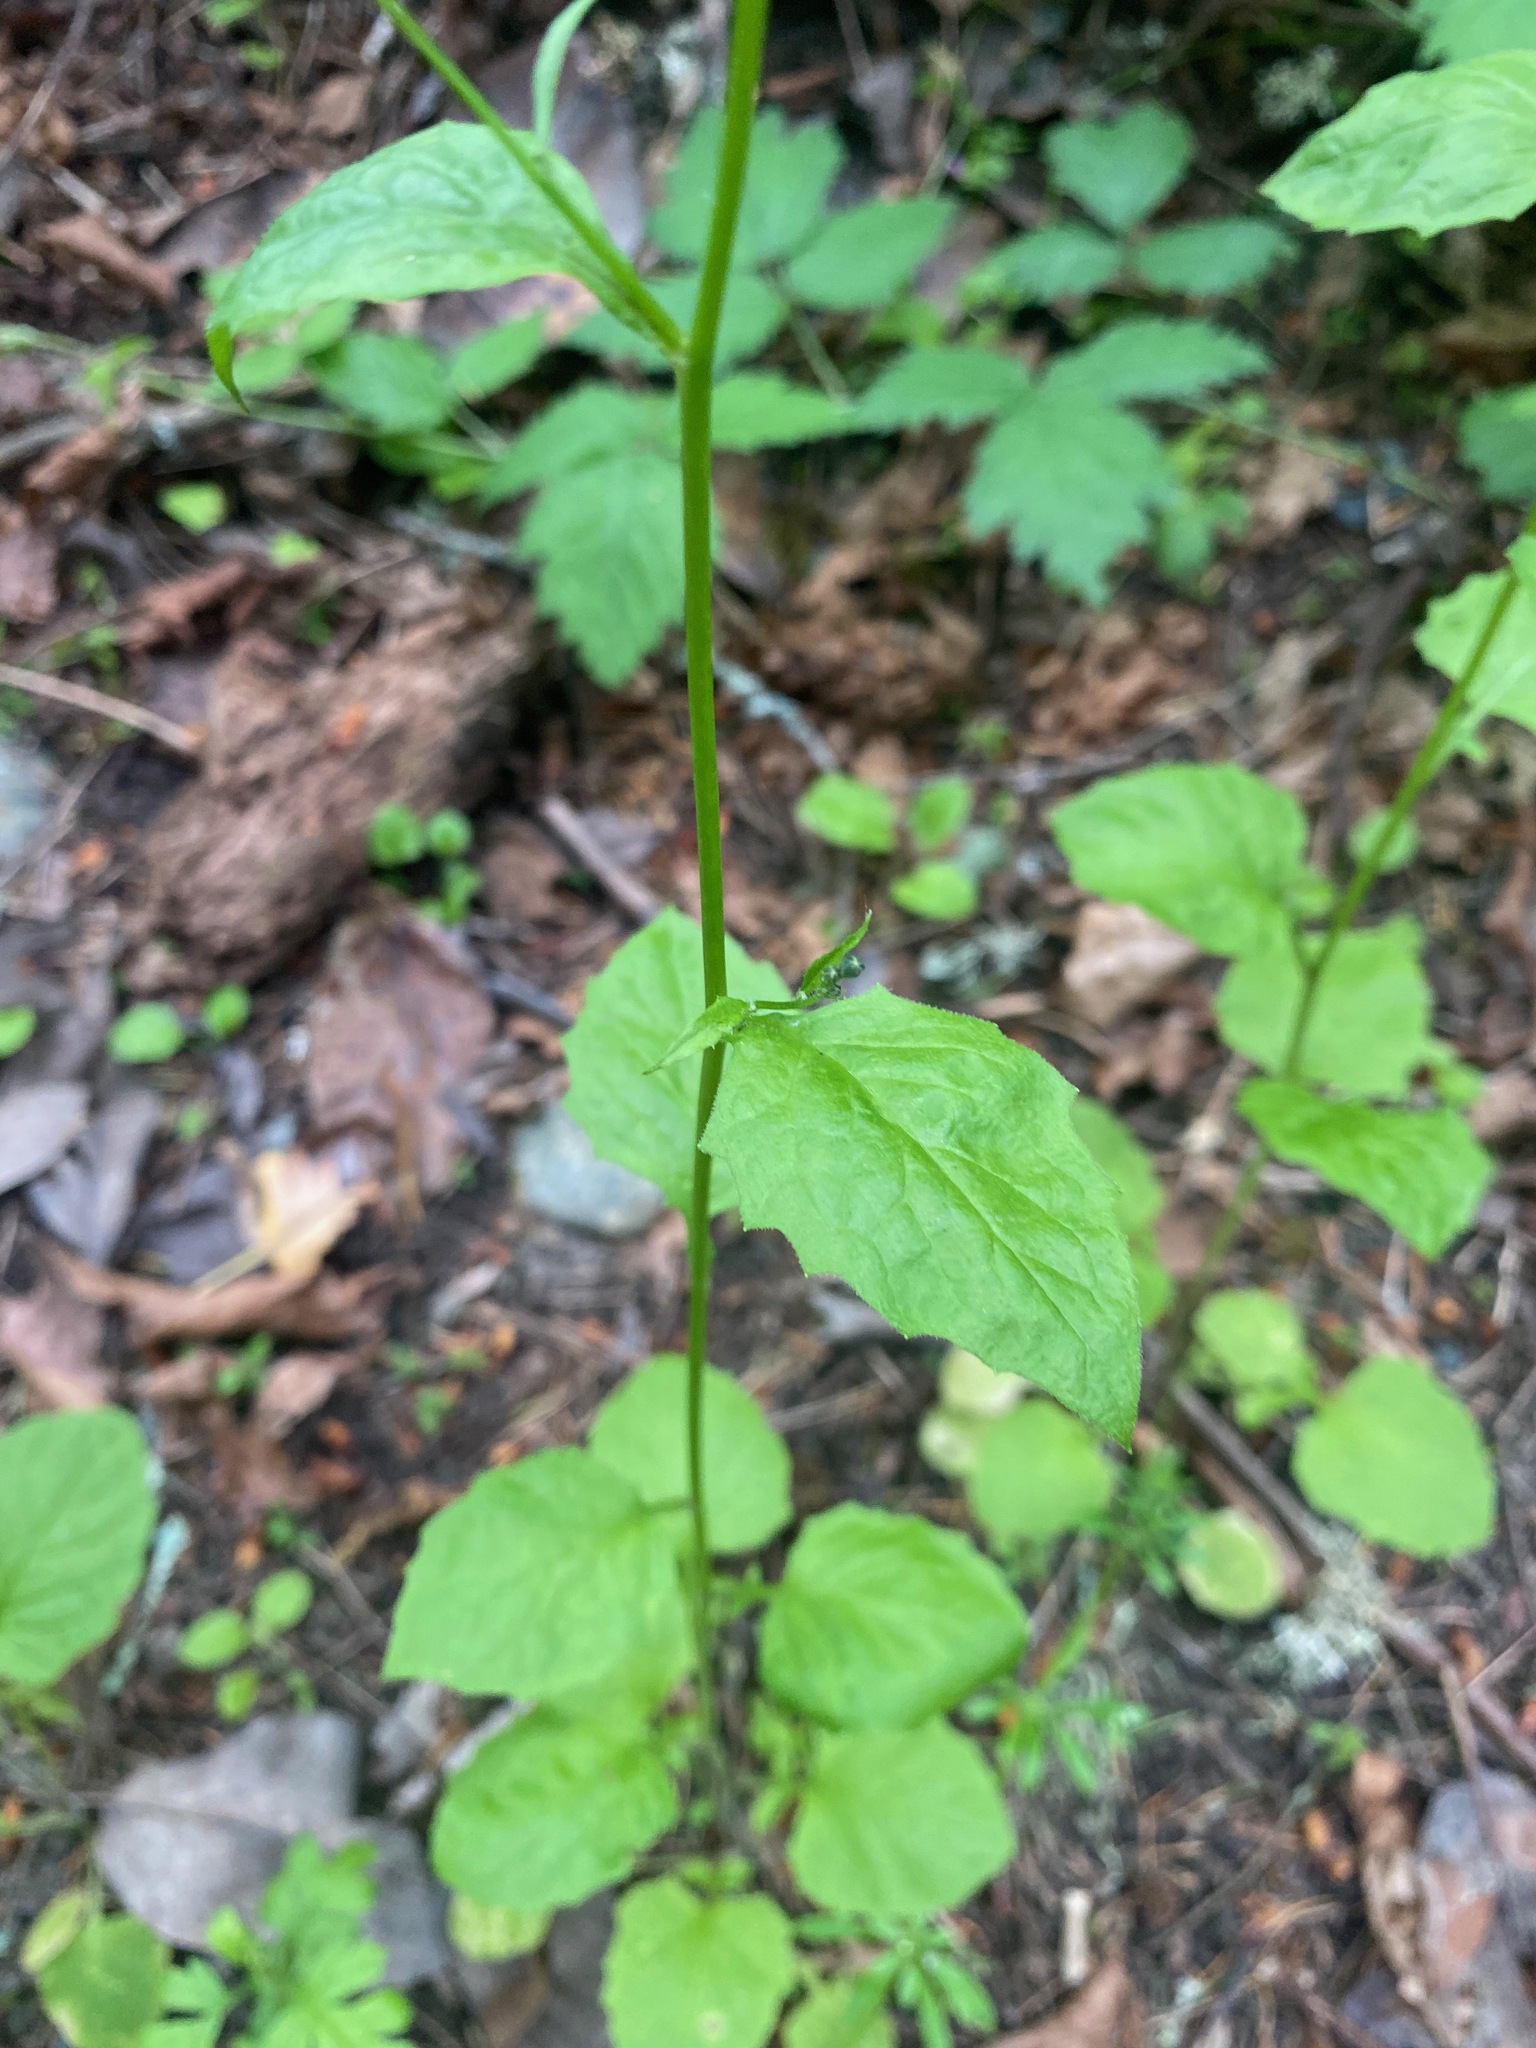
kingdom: Plantae
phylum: Tracheophyta
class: Magnoliopsida
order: Asterales
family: Asteraceae
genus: Lapsana
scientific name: Lapsana communis
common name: Nipplewort
